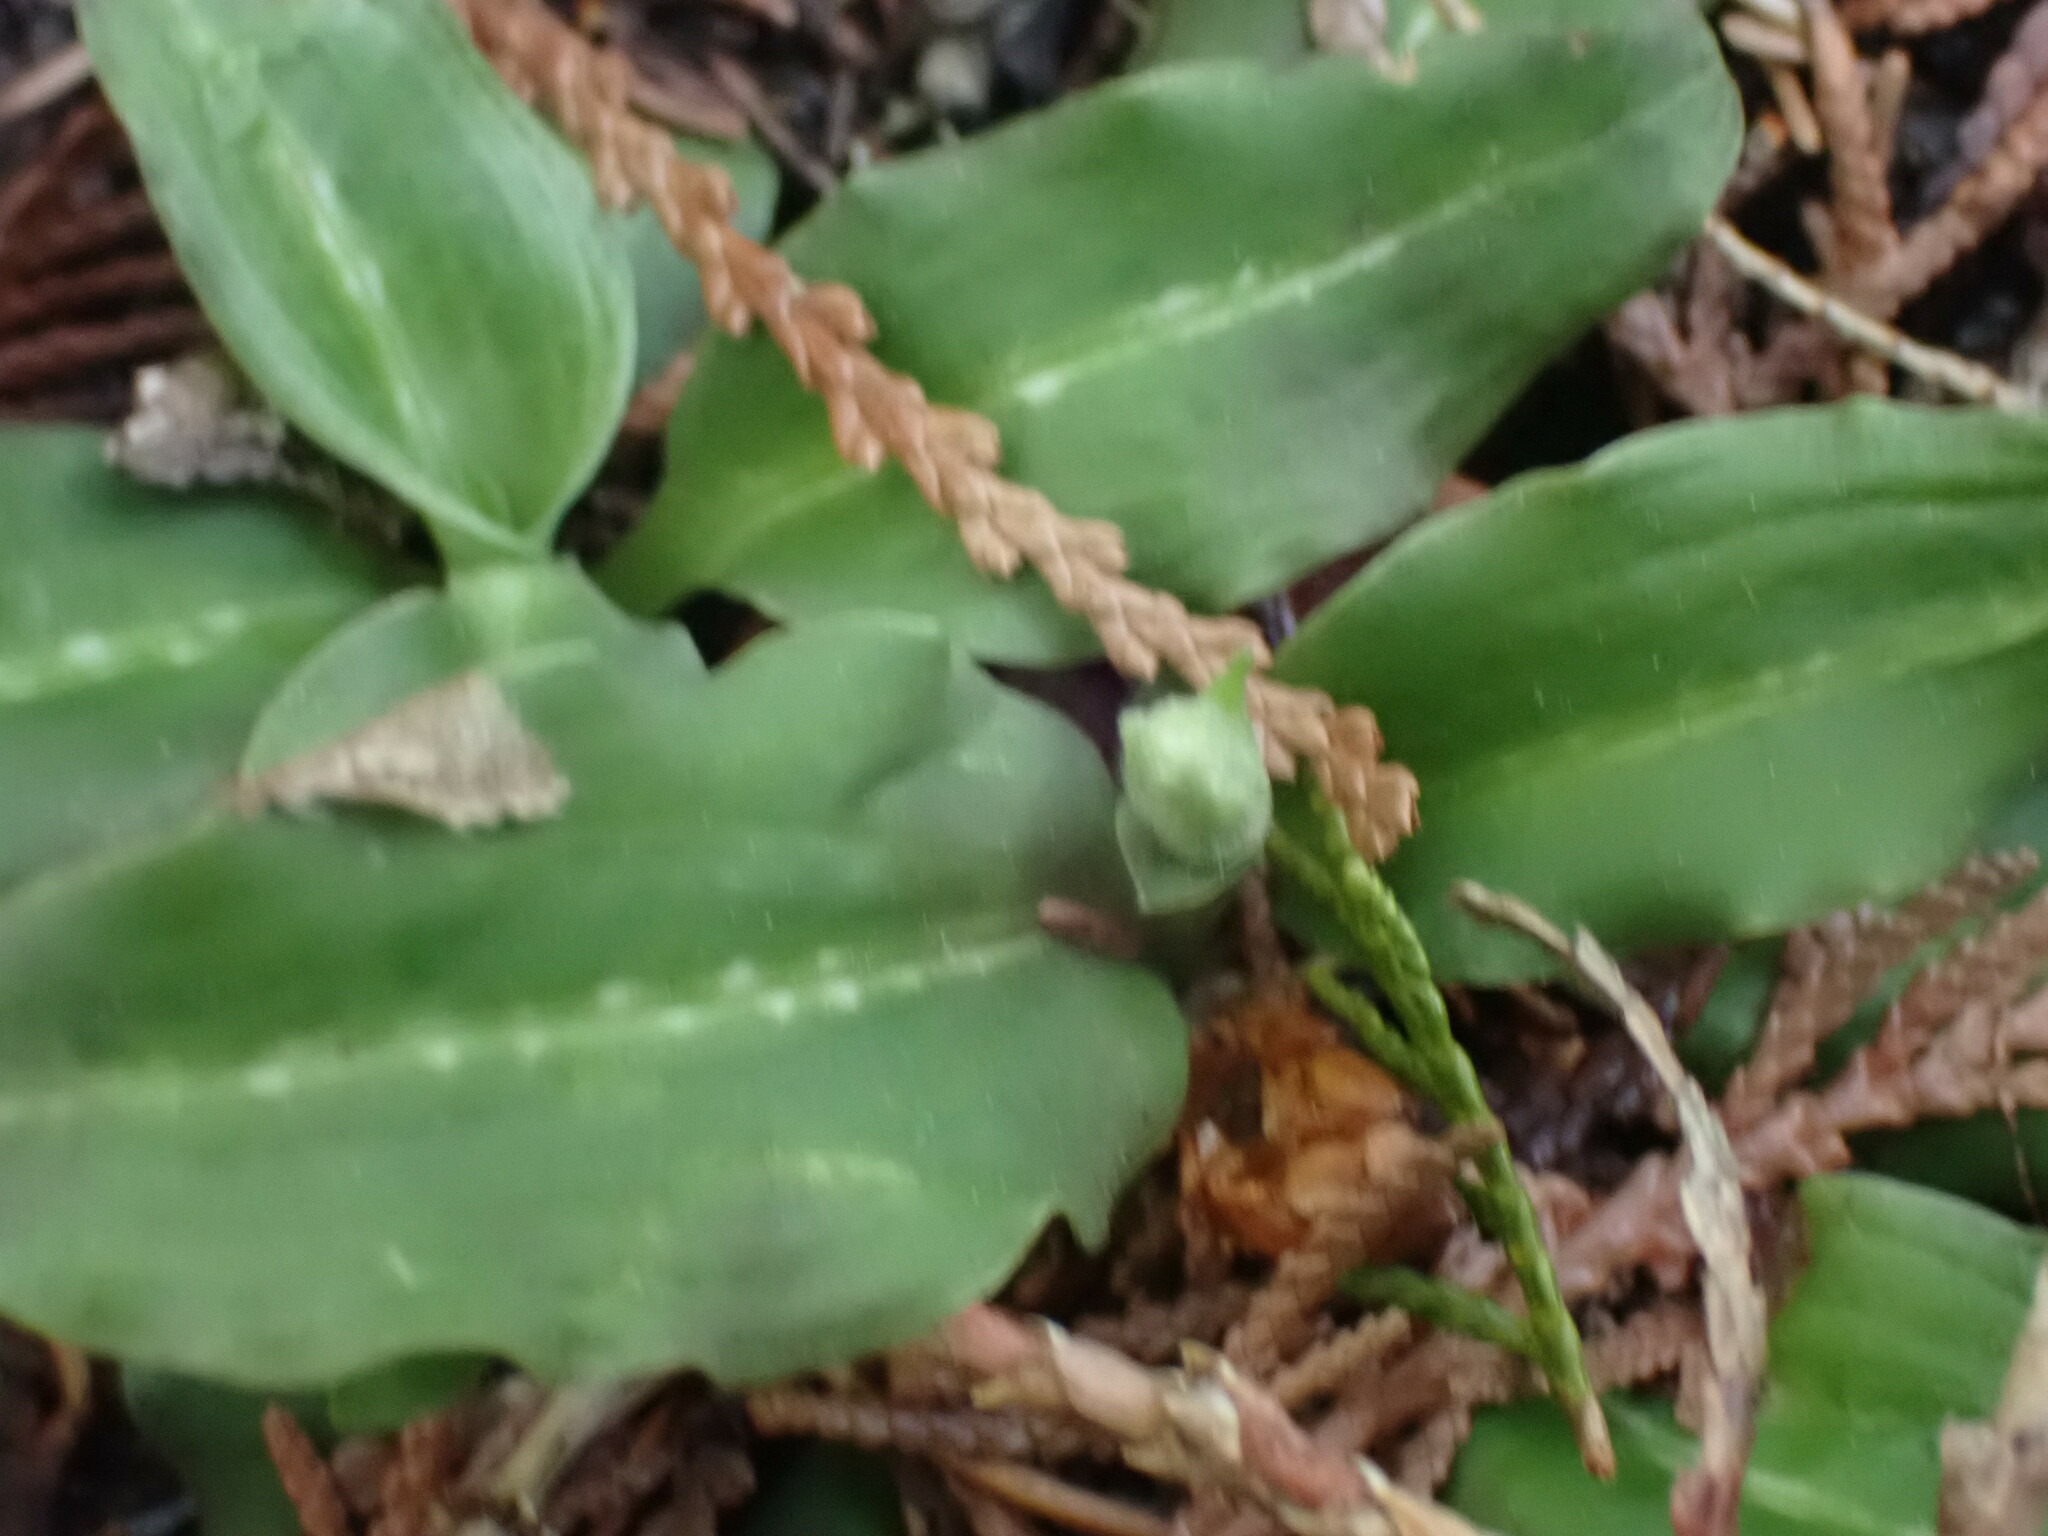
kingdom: Plantae
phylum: Tracheophyta
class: Liliopsida
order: Asparagales
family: Orchidaceae
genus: Goodyera
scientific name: Goodyera oblongifolia
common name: Giant rattlesnake-plantain
